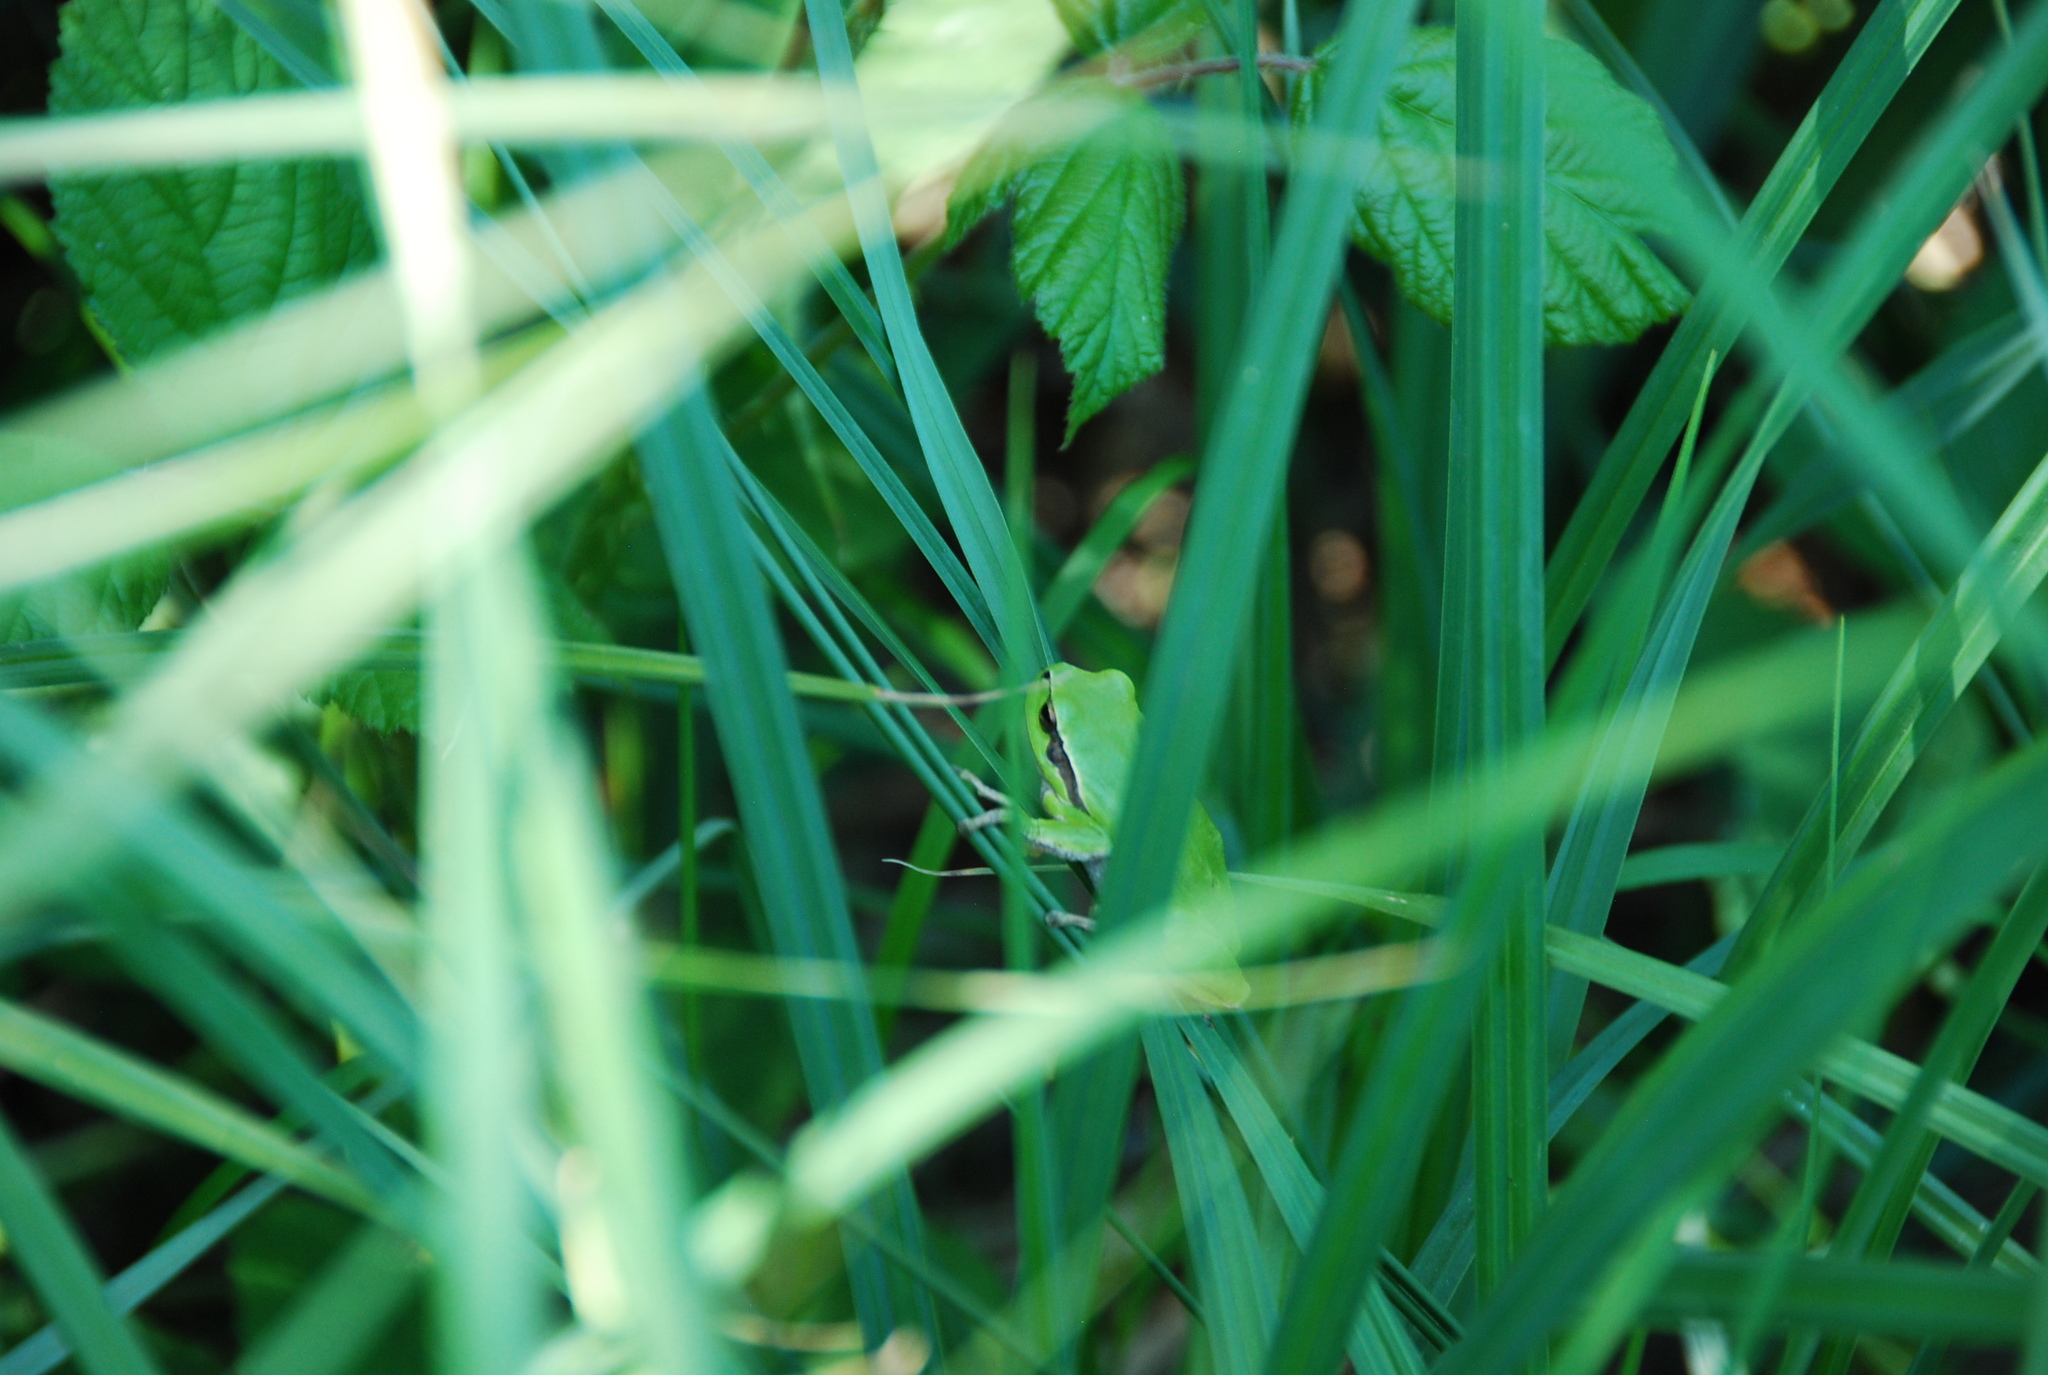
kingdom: Animalia
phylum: Chordata
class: Amphibia
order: Anura
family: Hylidae
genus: Hyla
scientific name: Hyla arborea
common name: Common tree frog
